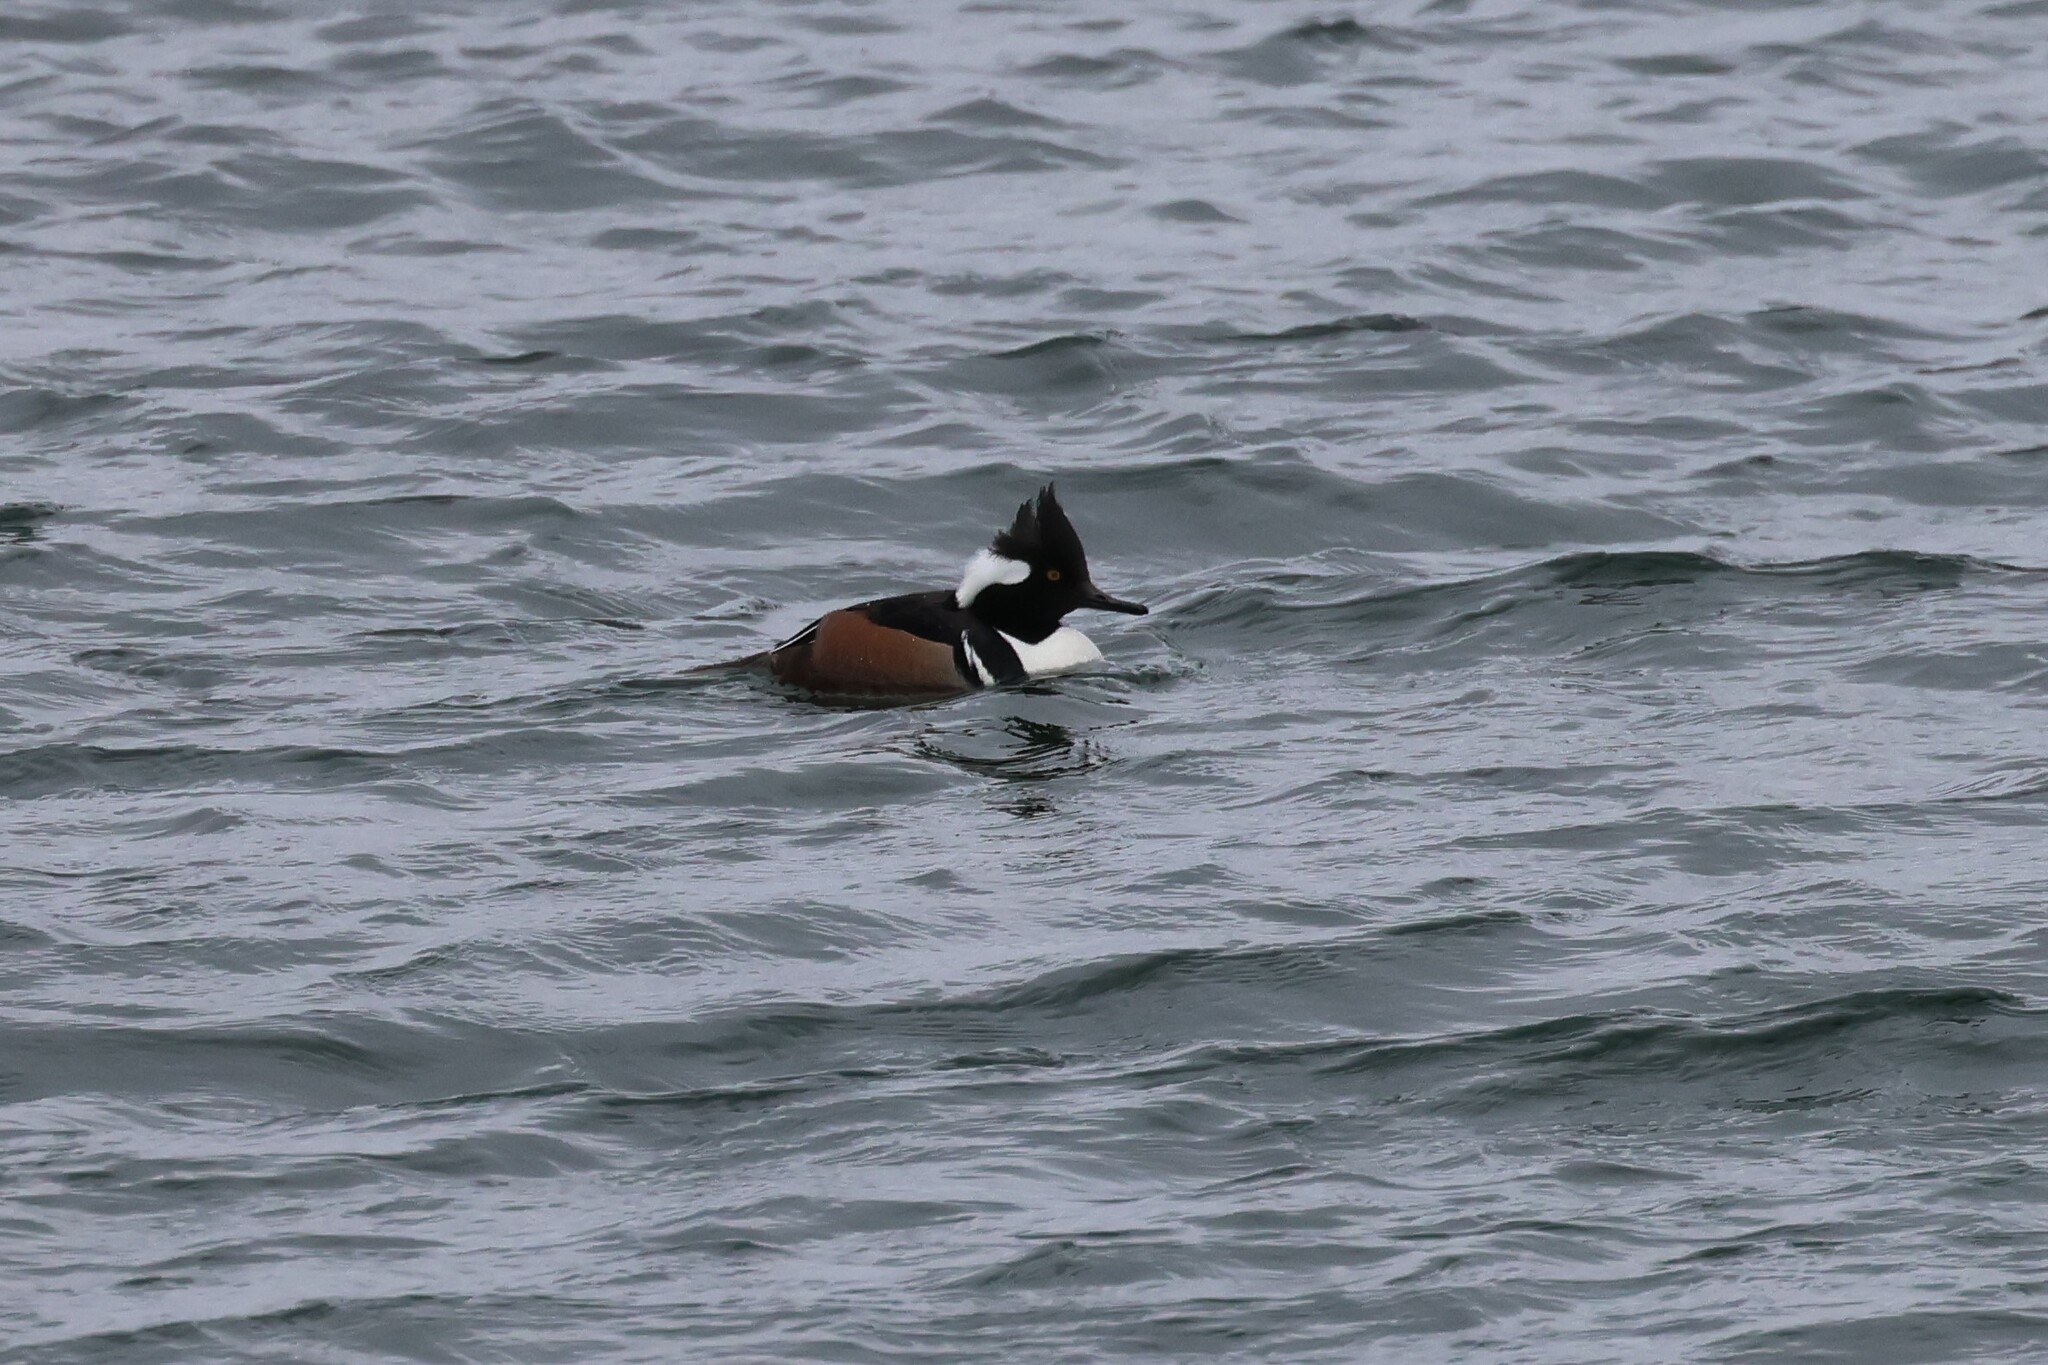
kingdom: Animalia
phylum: Chordata
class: Aves
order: Anseriformes
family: Anatidae
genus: Lophodytes
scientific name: Lophodytes cucullatus
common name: Hooded merganser
